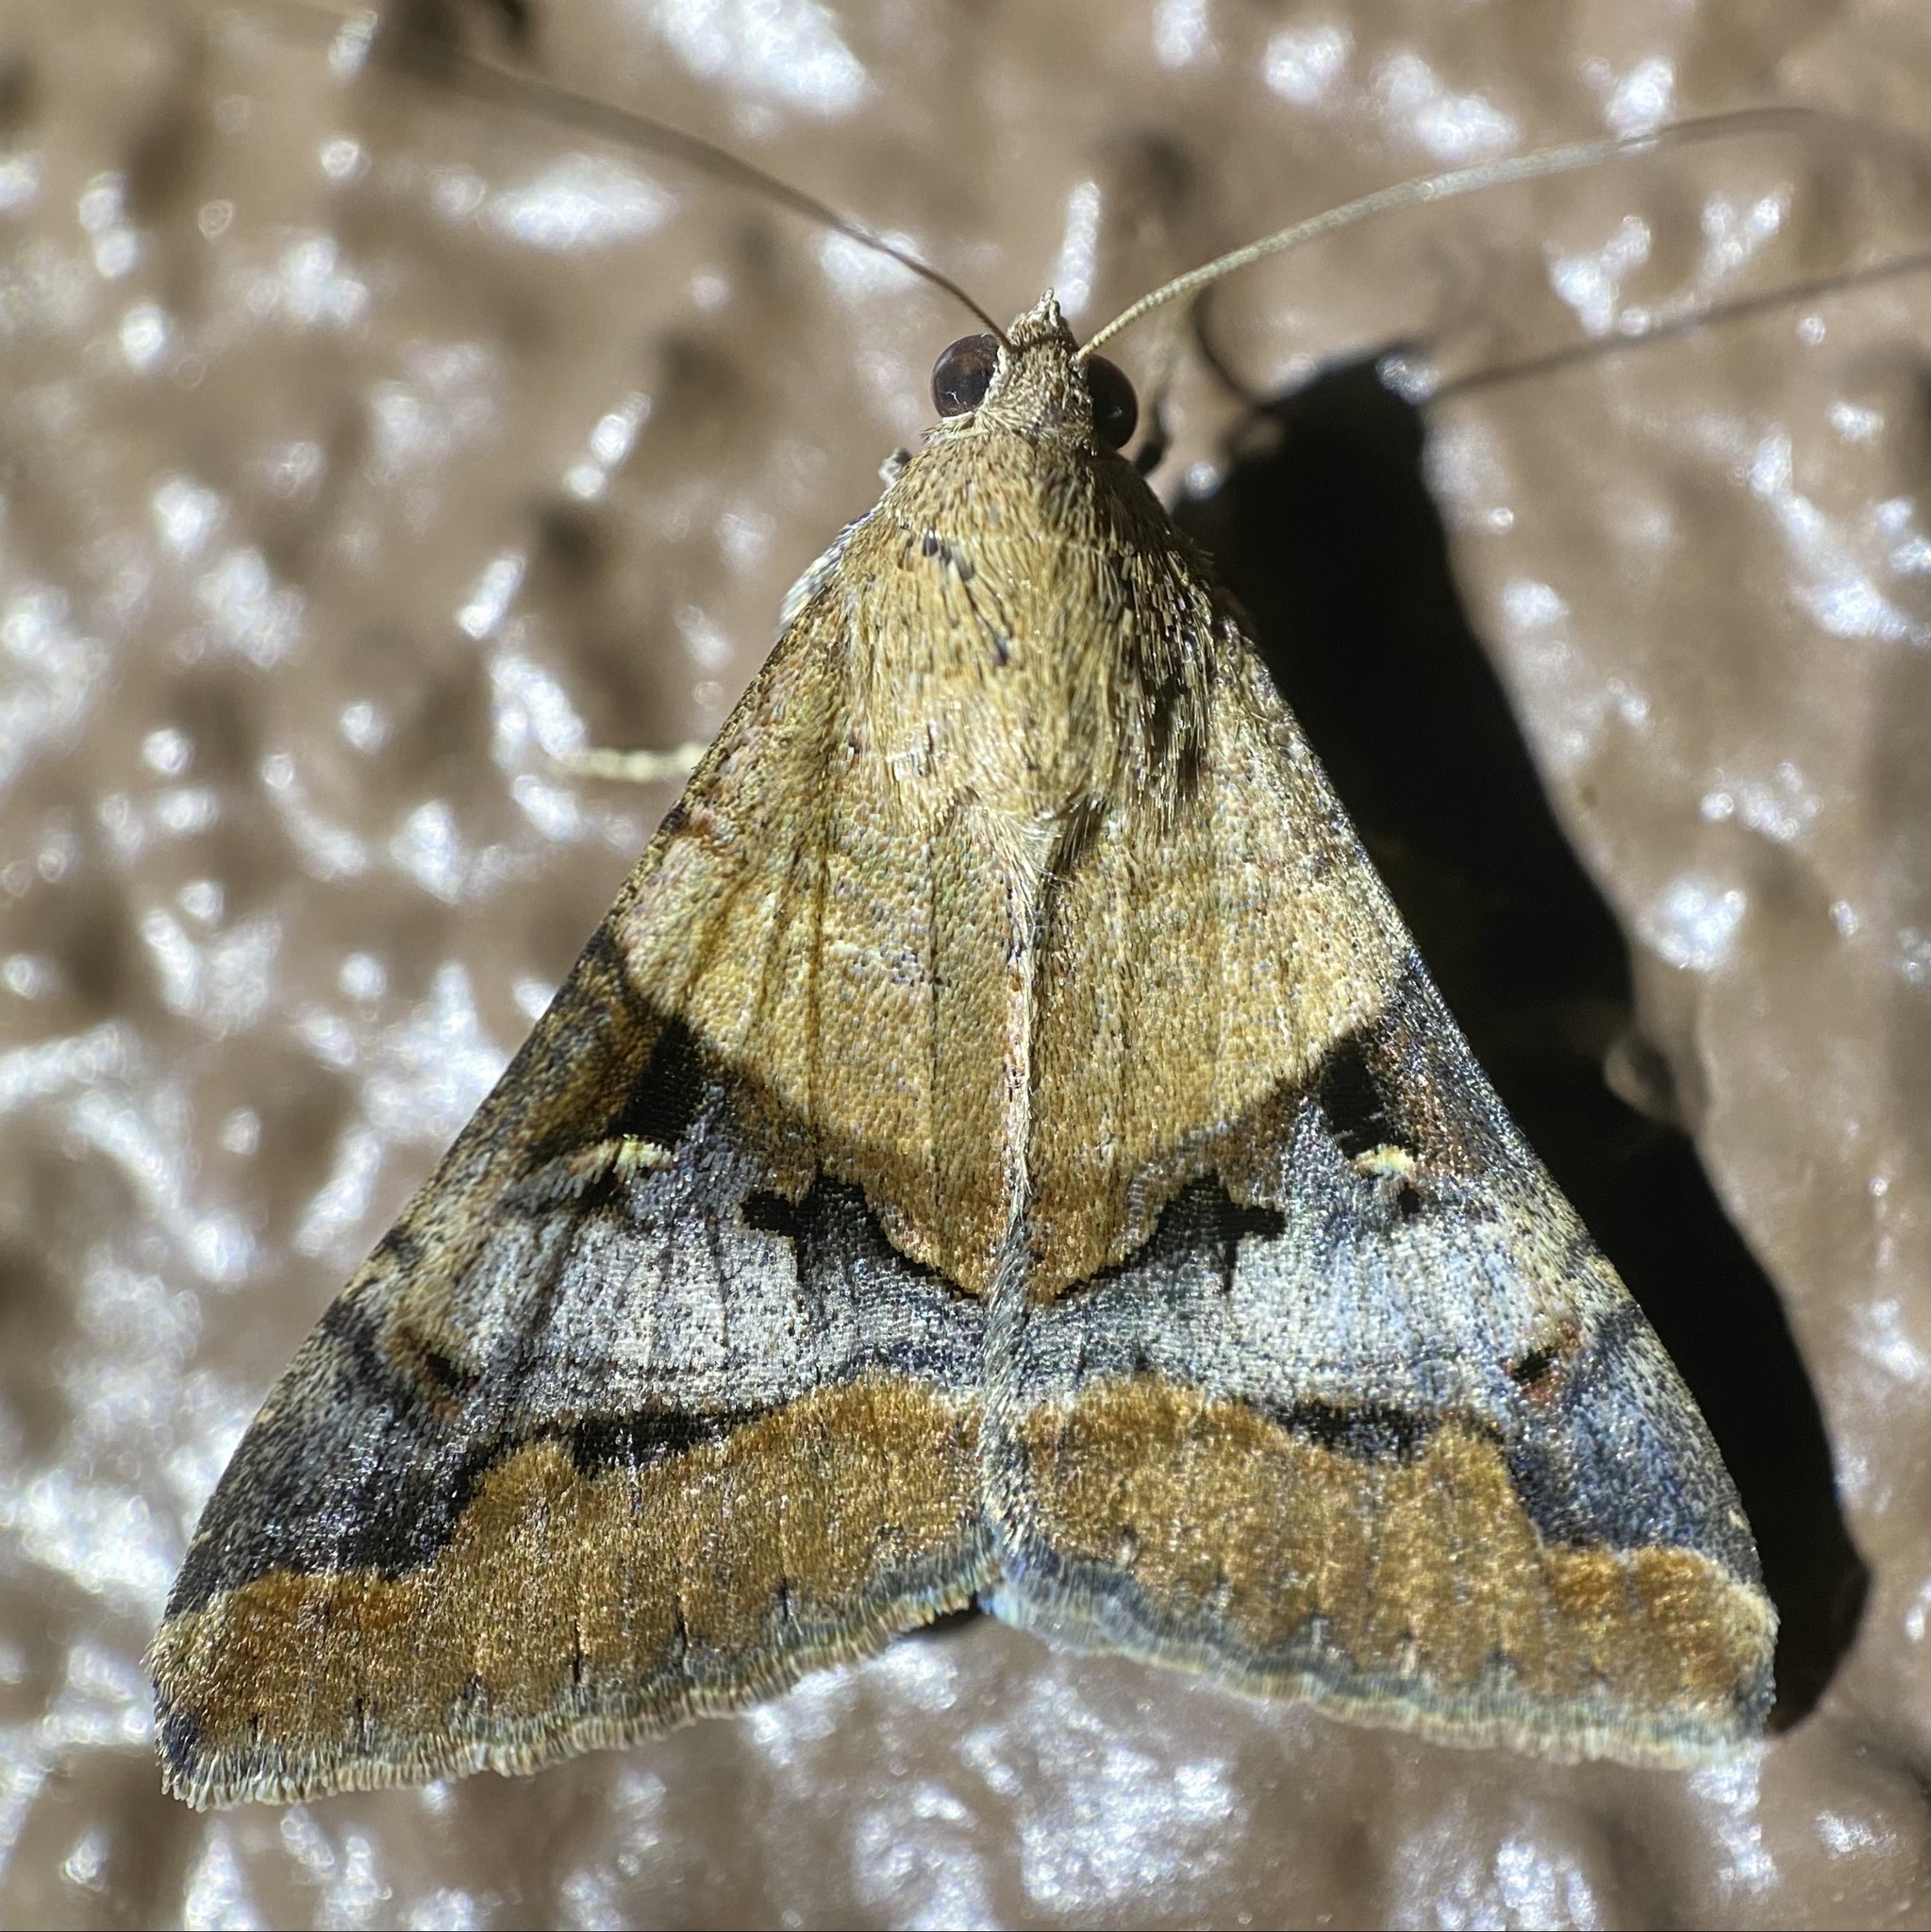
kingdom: Animalia
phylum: Arthropoda
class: Insecta
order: Lepidoptera
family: Erebidae
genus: Melipotis
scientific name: Melipotis perpendicularis
